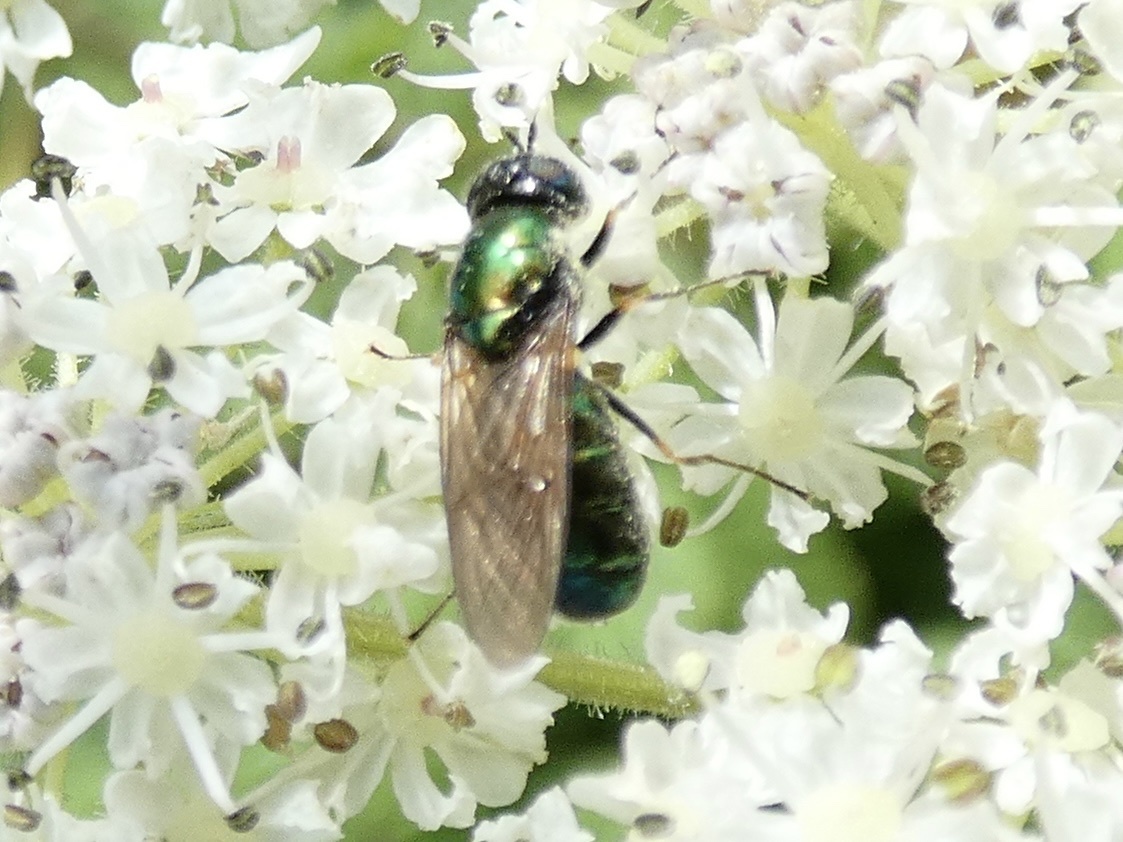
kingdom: Animalia
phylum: Arthropoda
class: Insecta
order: Diptera
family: Stratiomyidae
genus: Chloromyia
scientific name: Chloromyia formosa
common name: Soldier fly
